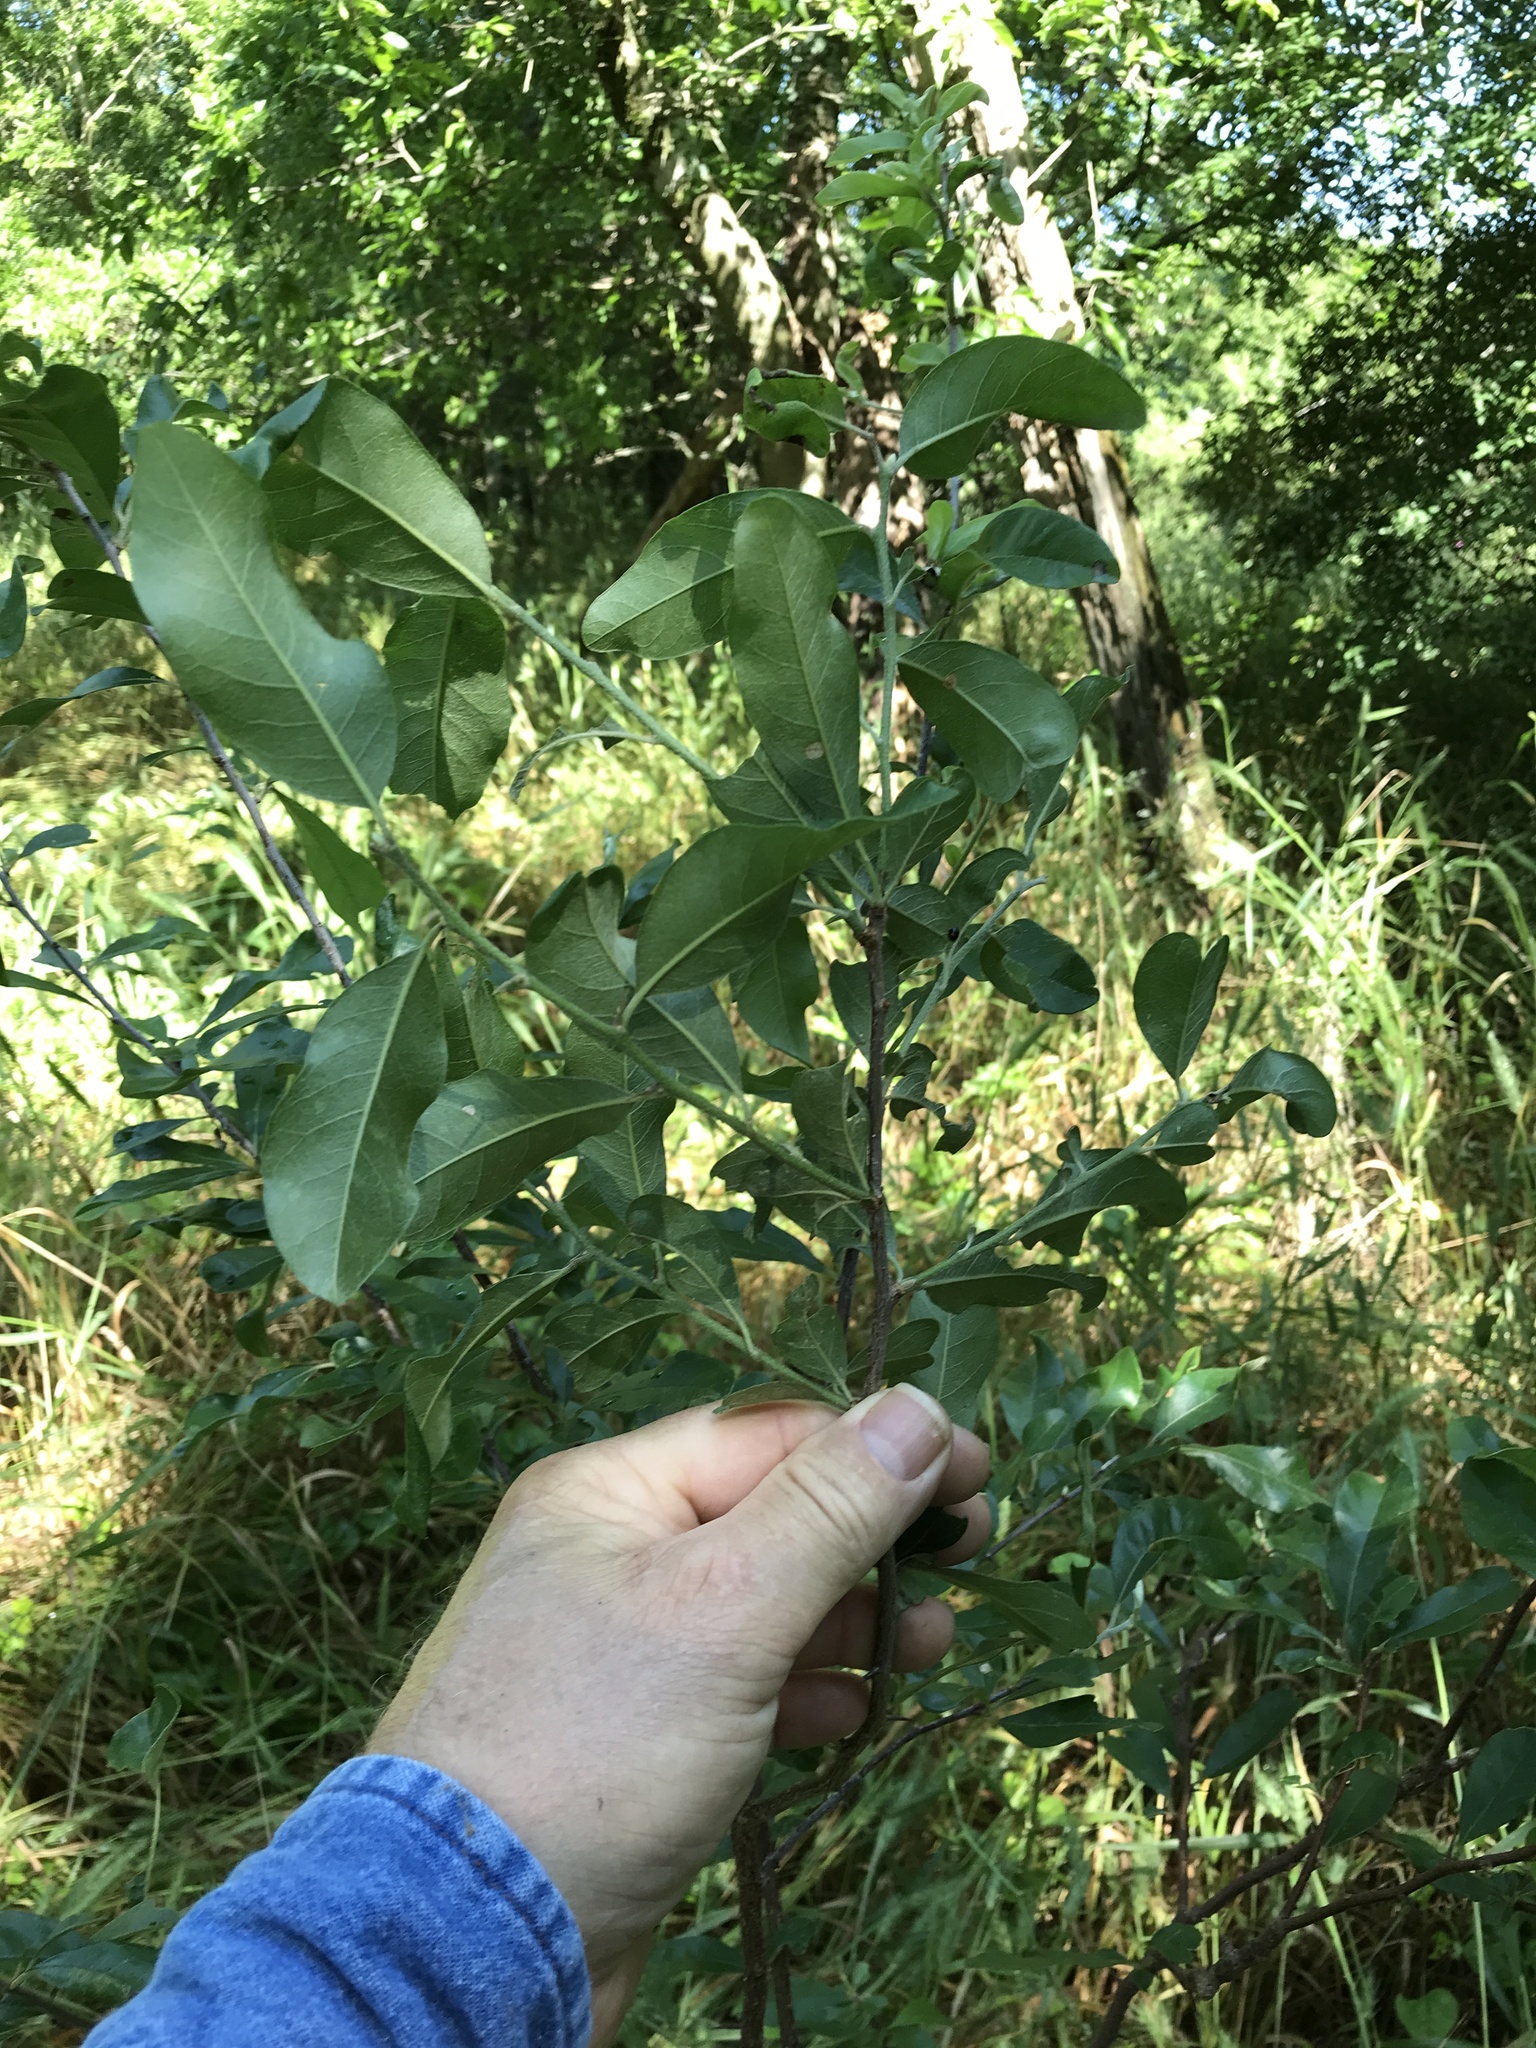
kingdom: Plantae
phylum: Tracheophyta
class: Magnoliopsida
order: Ericales
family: Sapotaceae
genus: Sideroxylon
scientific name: Sideroxylon lanuginosum
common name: Chittamwood
